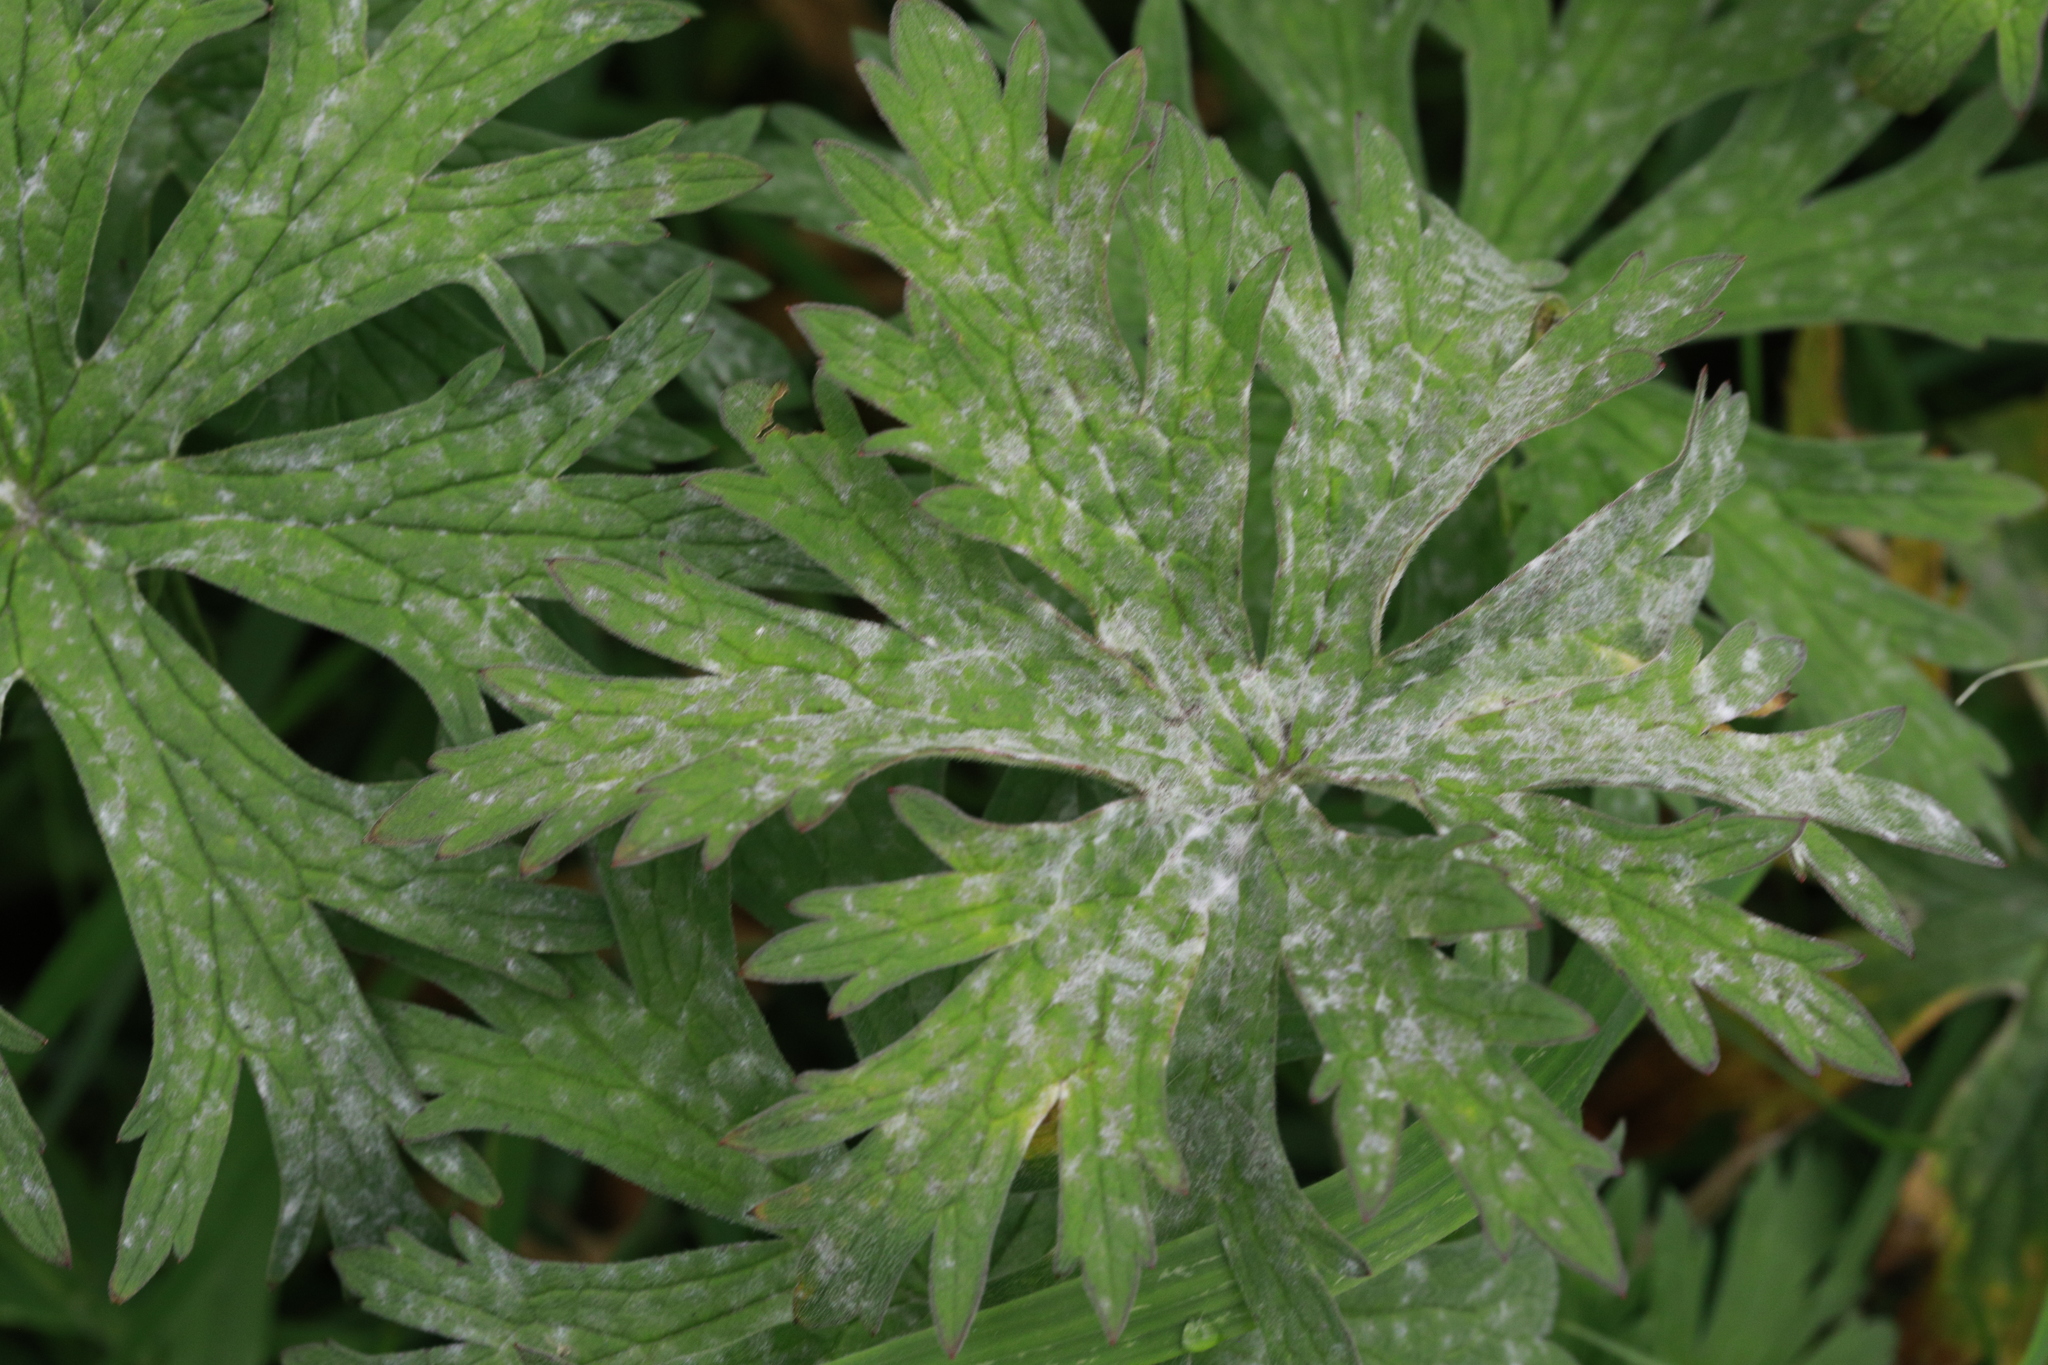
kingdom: Fungi
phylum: Ascomycota
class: Leotiomycetes
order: Helotiales
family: Erysiphaceae
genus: Neoerysiphe
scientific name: Neoerysiphe geranii
